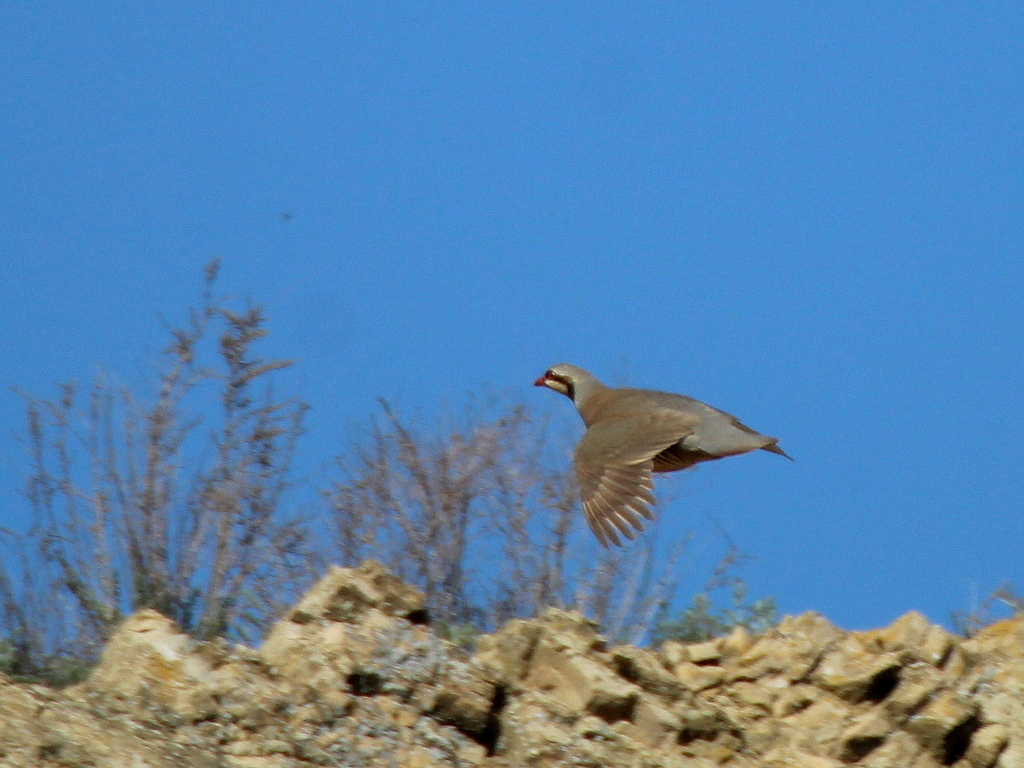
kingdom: Animalia
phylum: Chordata
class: Aves
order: Galliformes
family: Phasianidae
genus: Alectoris
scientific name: Alectoris chukar
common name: Chukar
